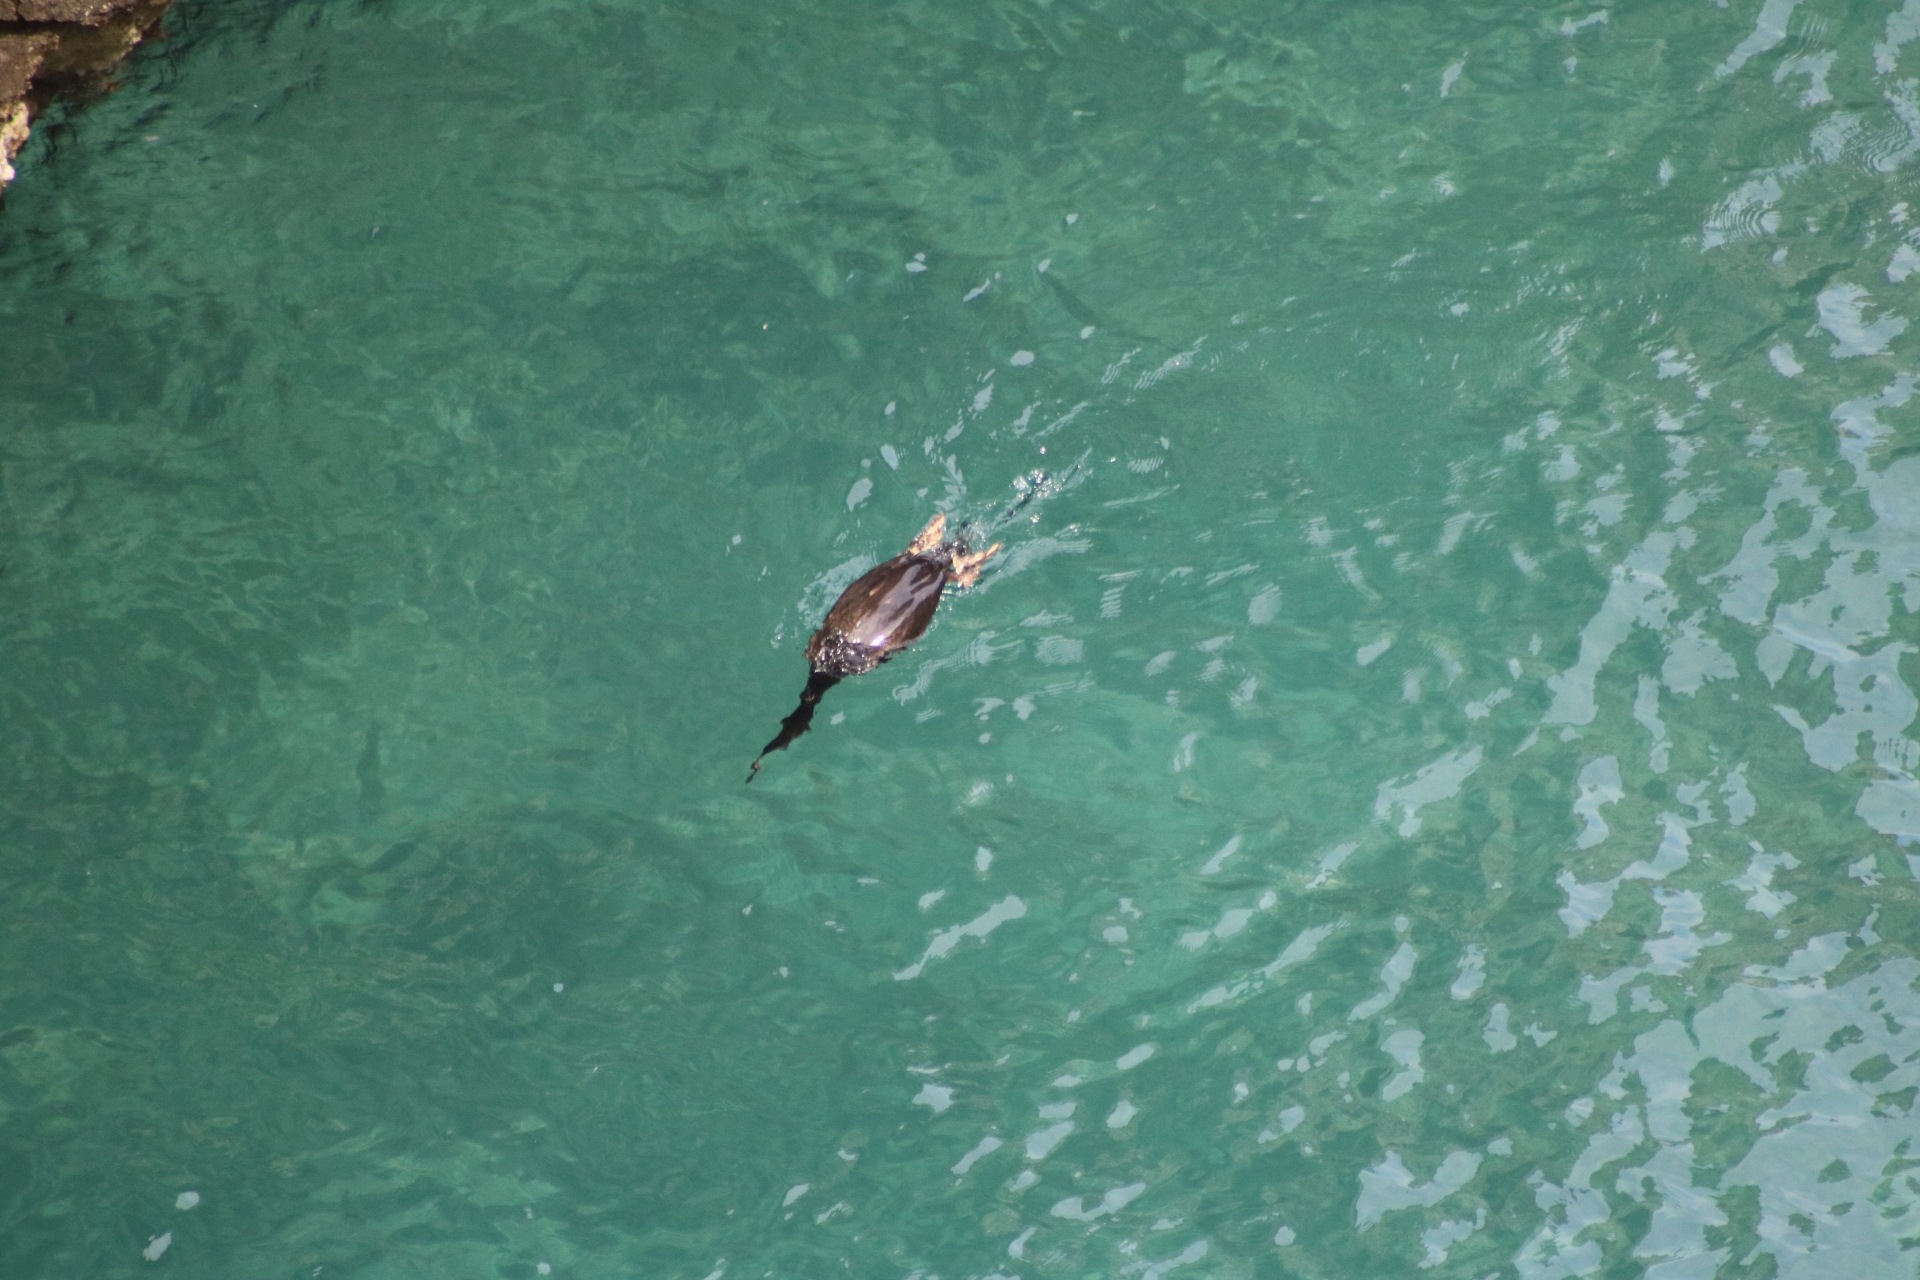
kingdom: Animalia
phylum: Chordata
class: Aves
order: Suliformes
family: Phalacrocoracidae
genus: Phalacrocorax
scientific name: Phalacrocorax aristotelis
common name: European shag
